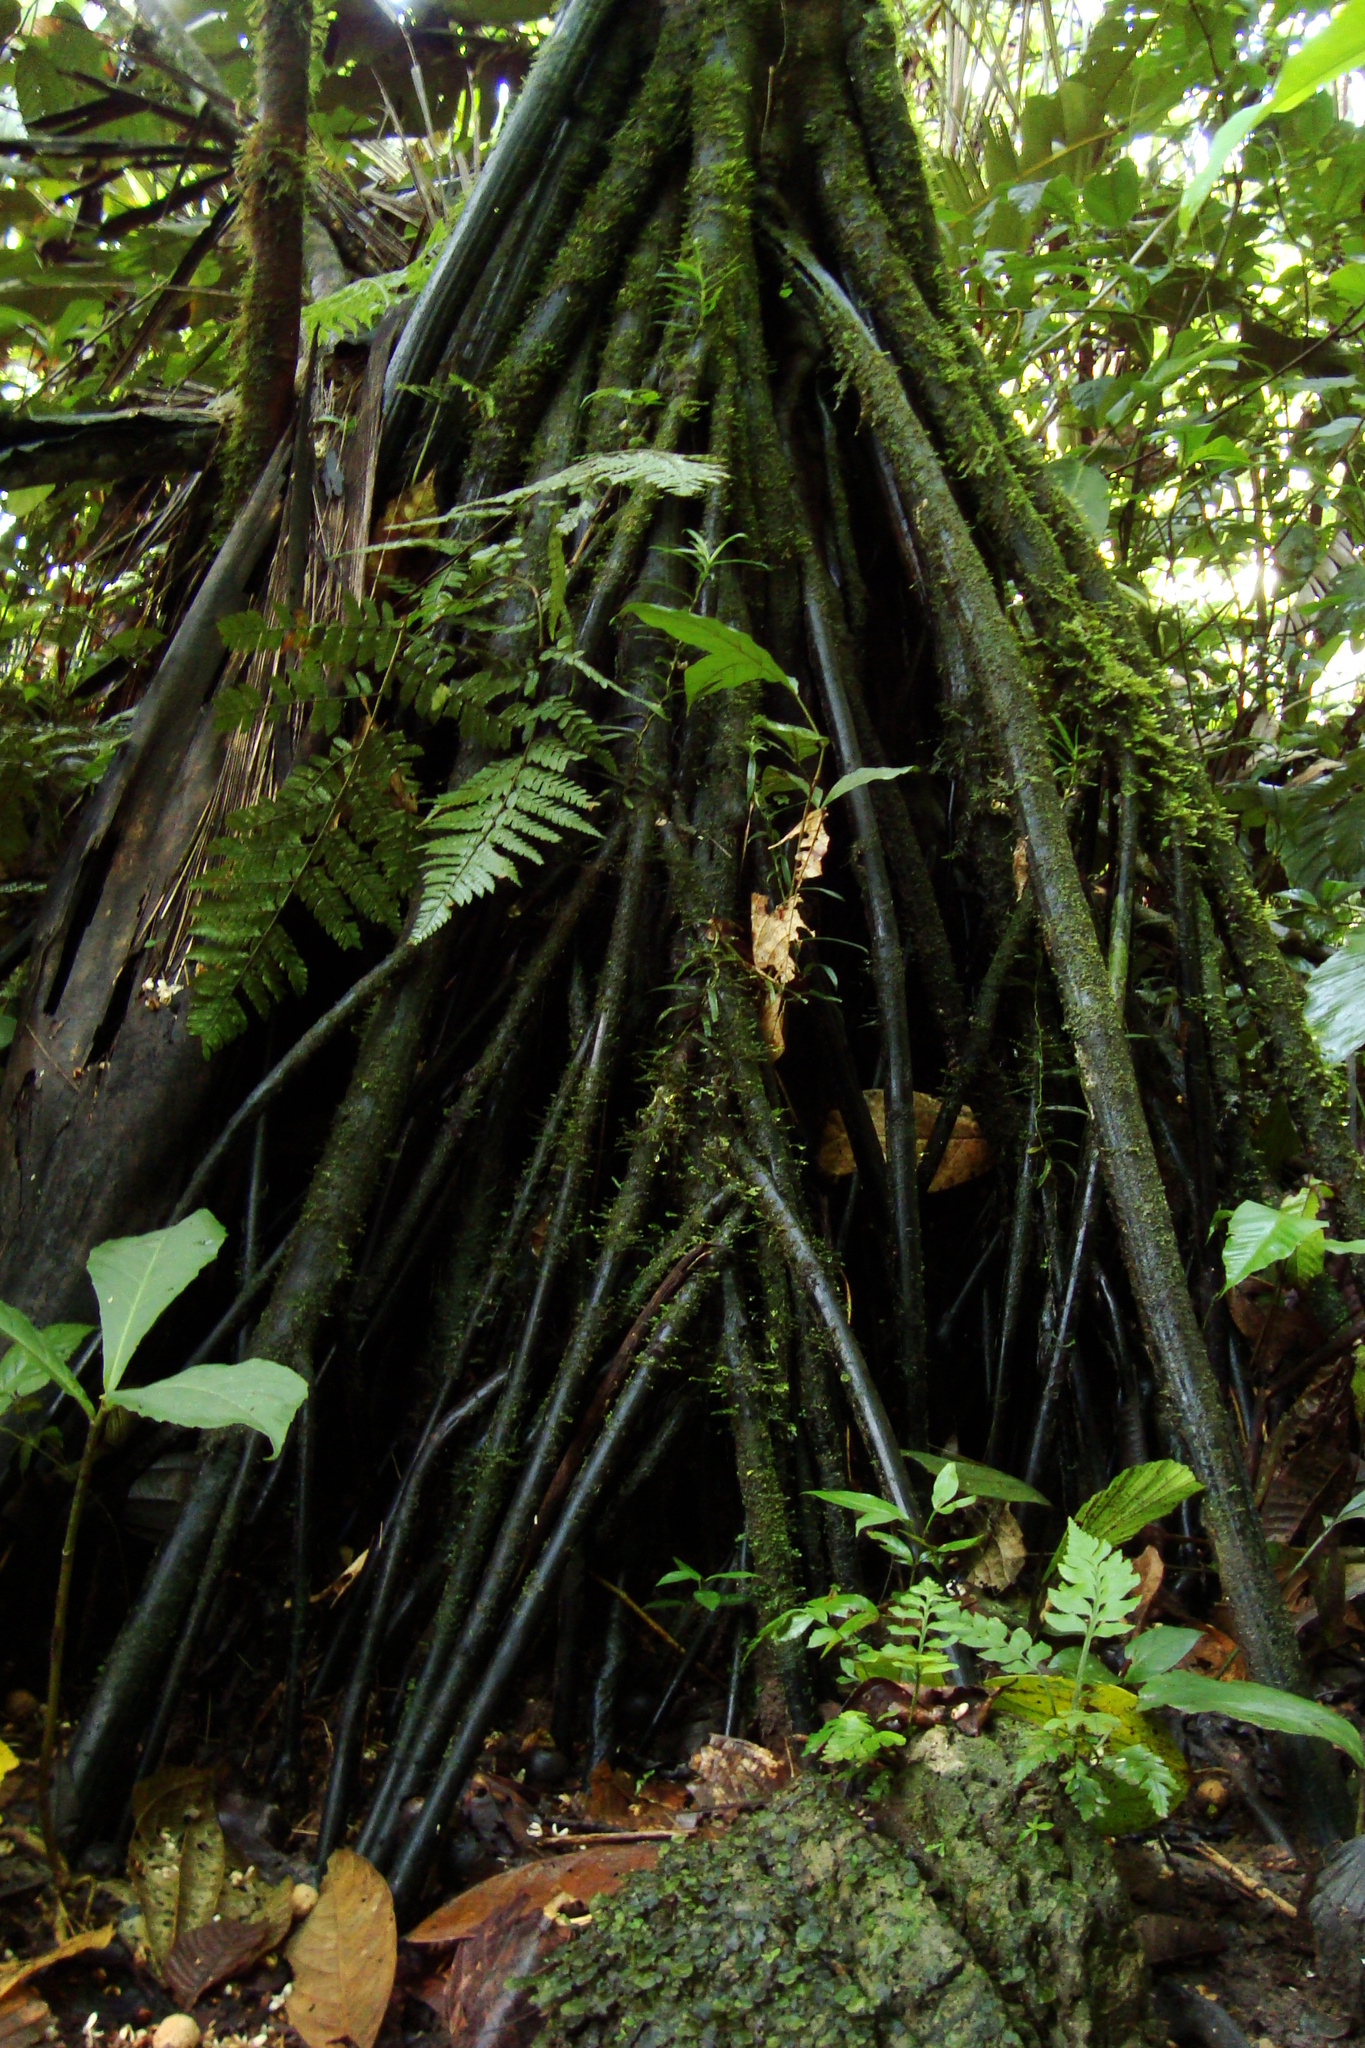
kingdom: Plantae
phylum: Tracheophyta
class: Liliopsida
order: Arecales
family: Arecaceae
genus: Iriartea
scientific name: Iriartea deltoidea
